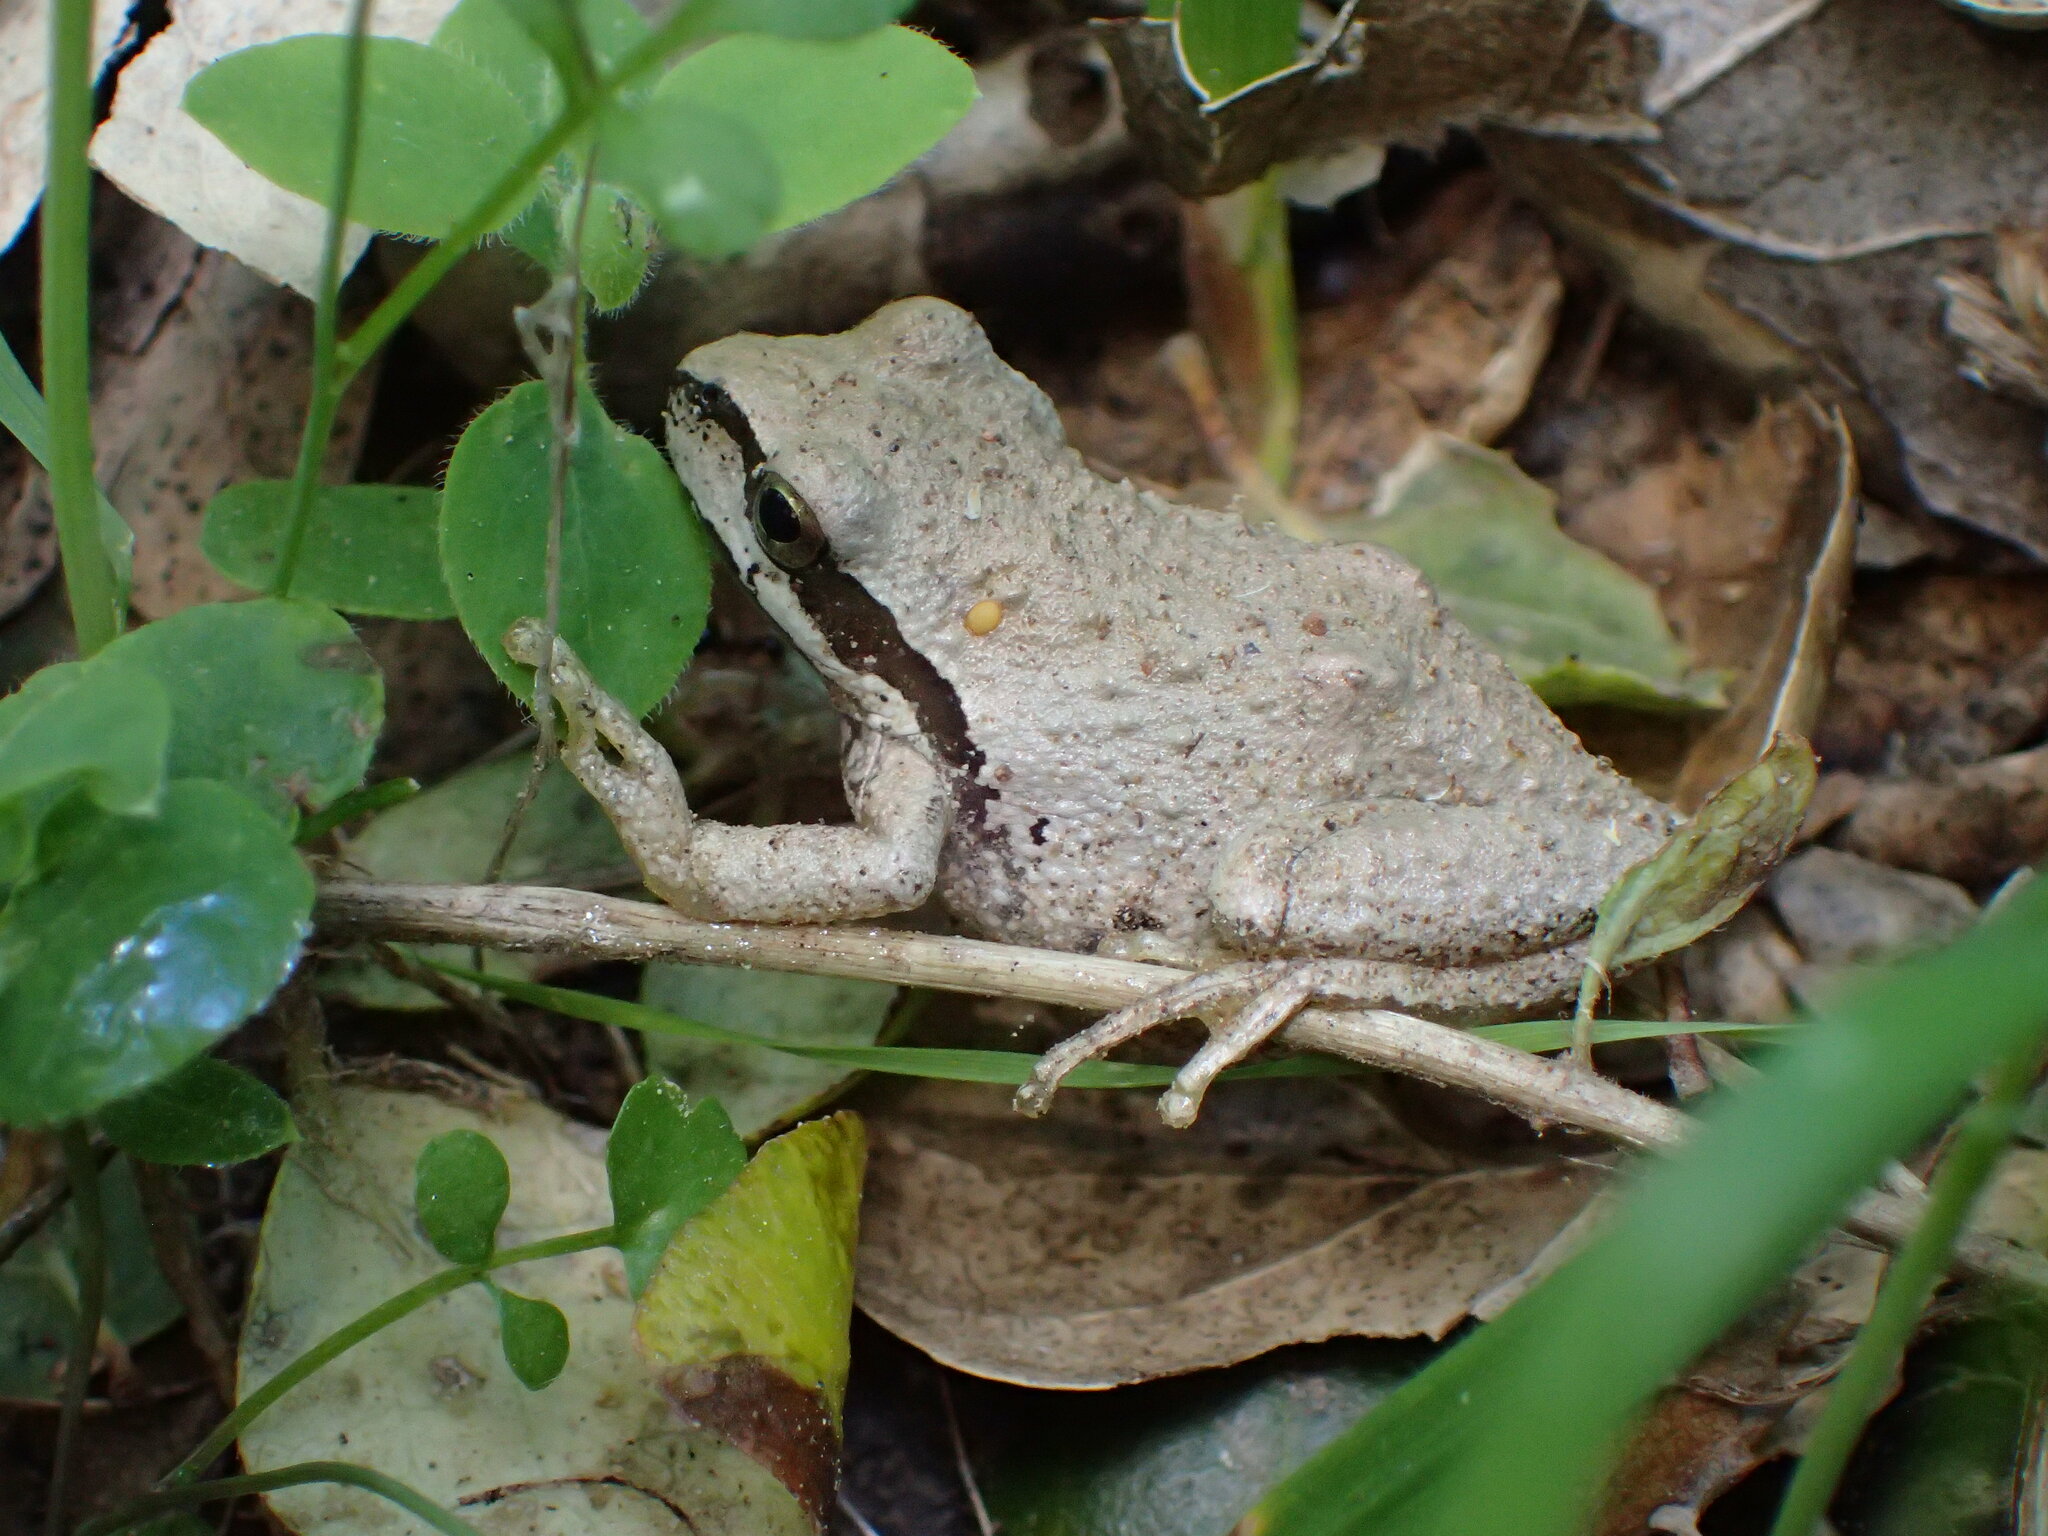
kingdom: Animalia
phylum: Chordata
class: Amphibia
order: Anura
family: Hylidae
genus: Pseudacris
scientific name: Pseudacris regilla
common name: Pacific chorus frog
